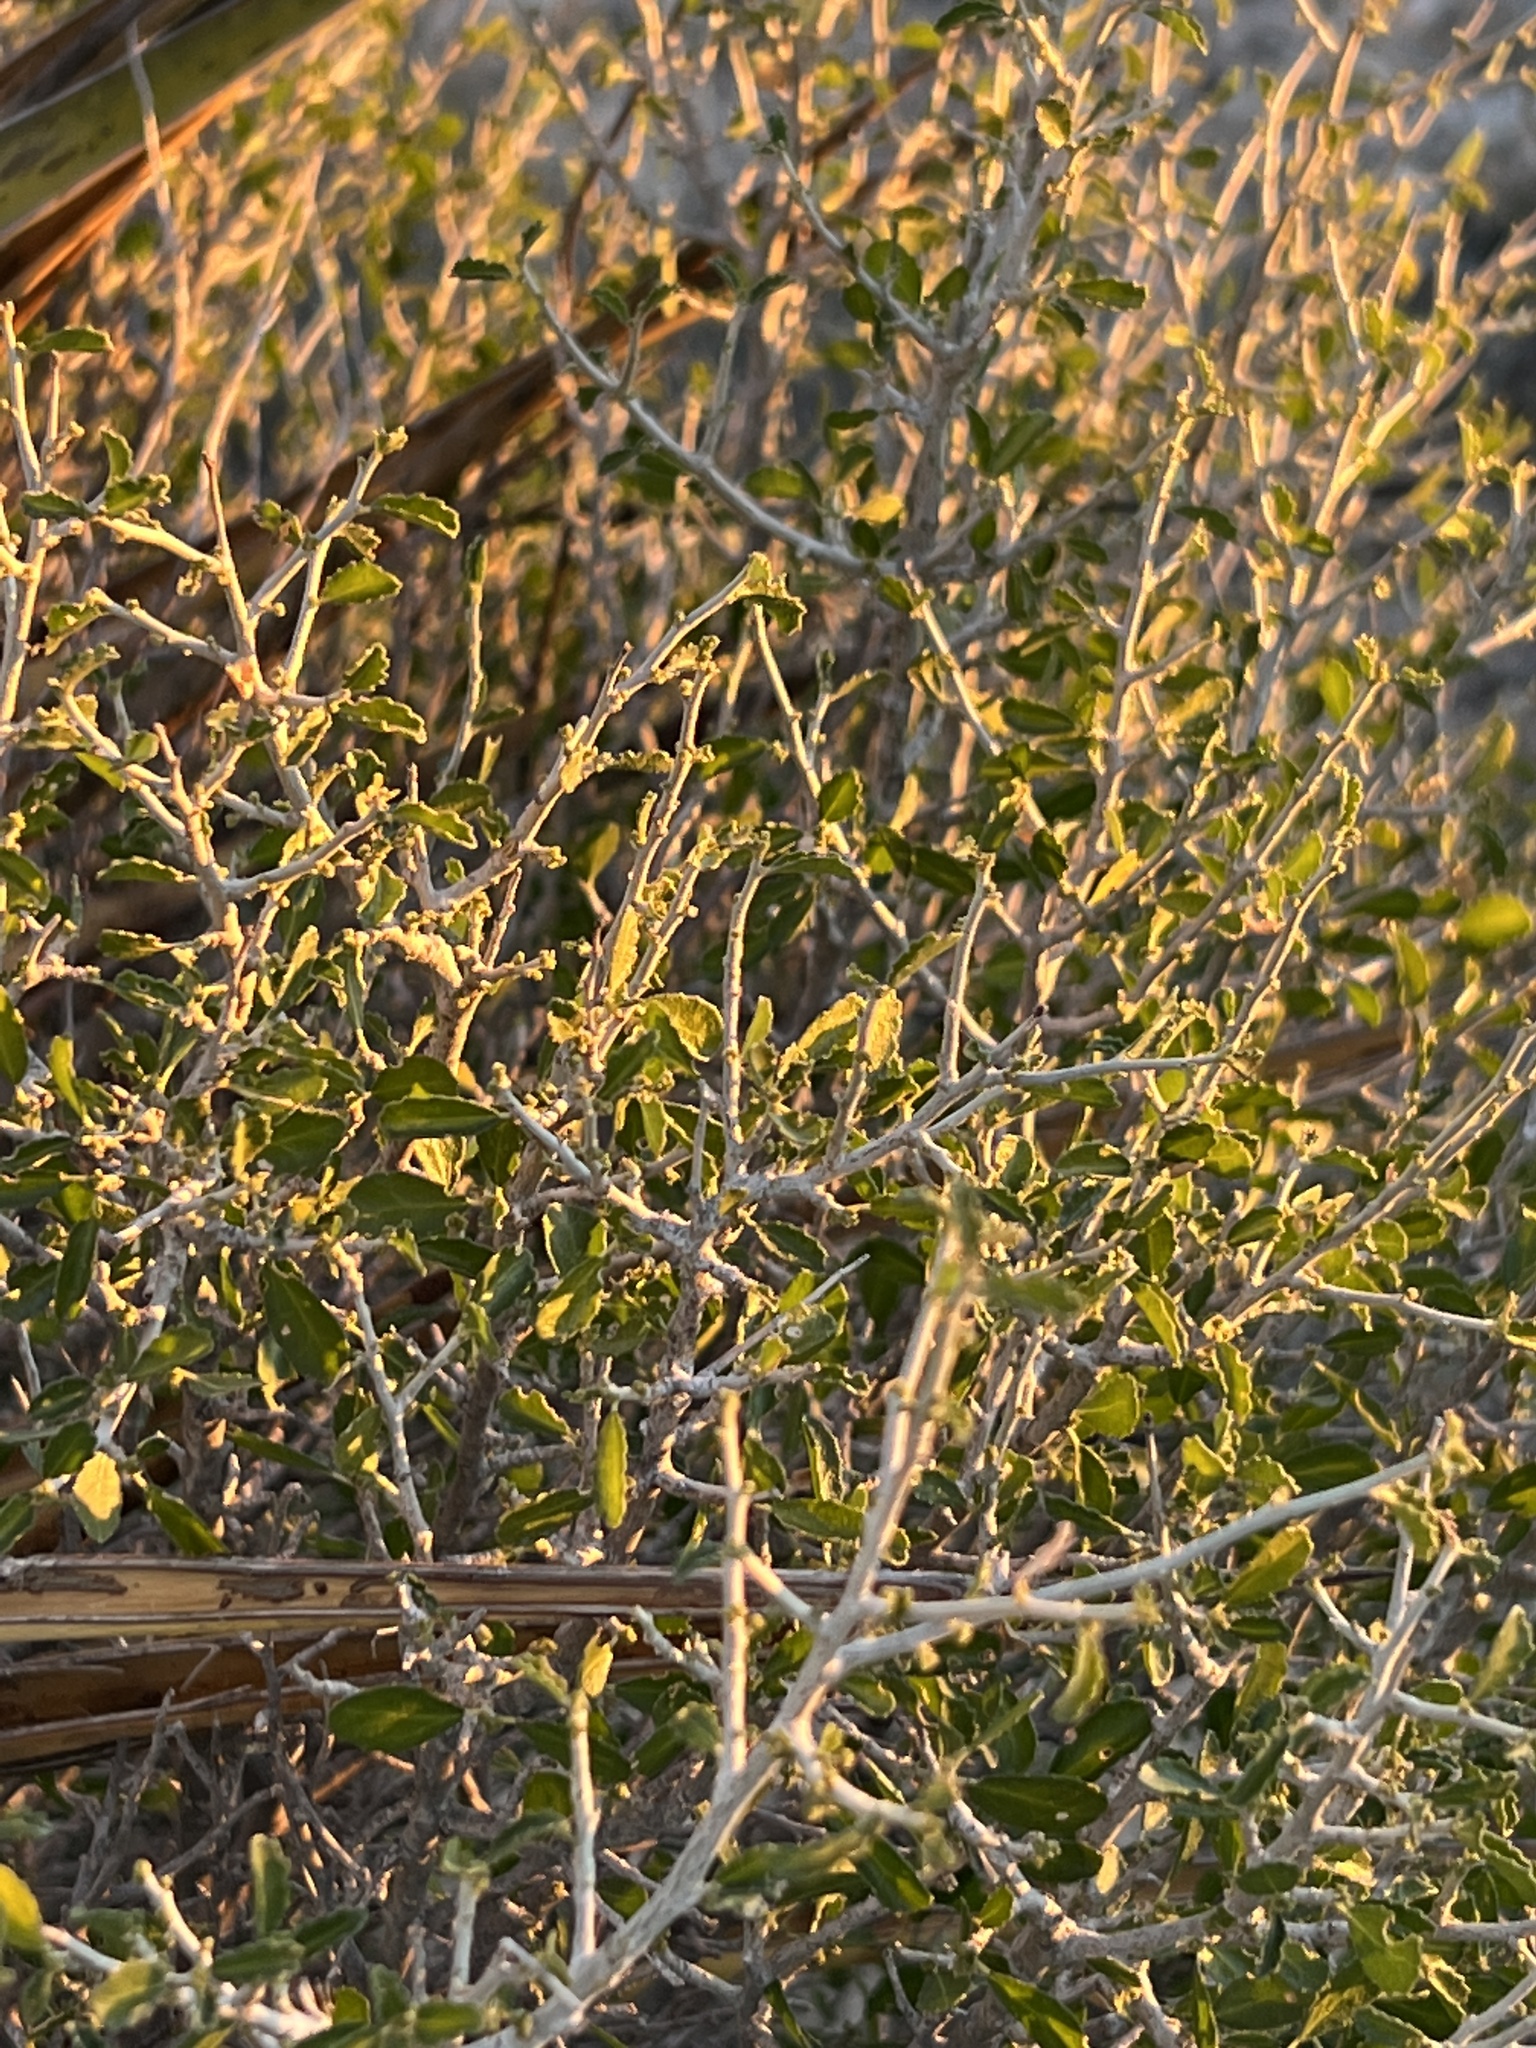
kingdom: Plantae
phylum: Tracheophyta
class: Magnoliopsida
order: Malpighiales
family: Euphorbiaceae
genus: Bernardia
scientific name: Bernardia obovata
